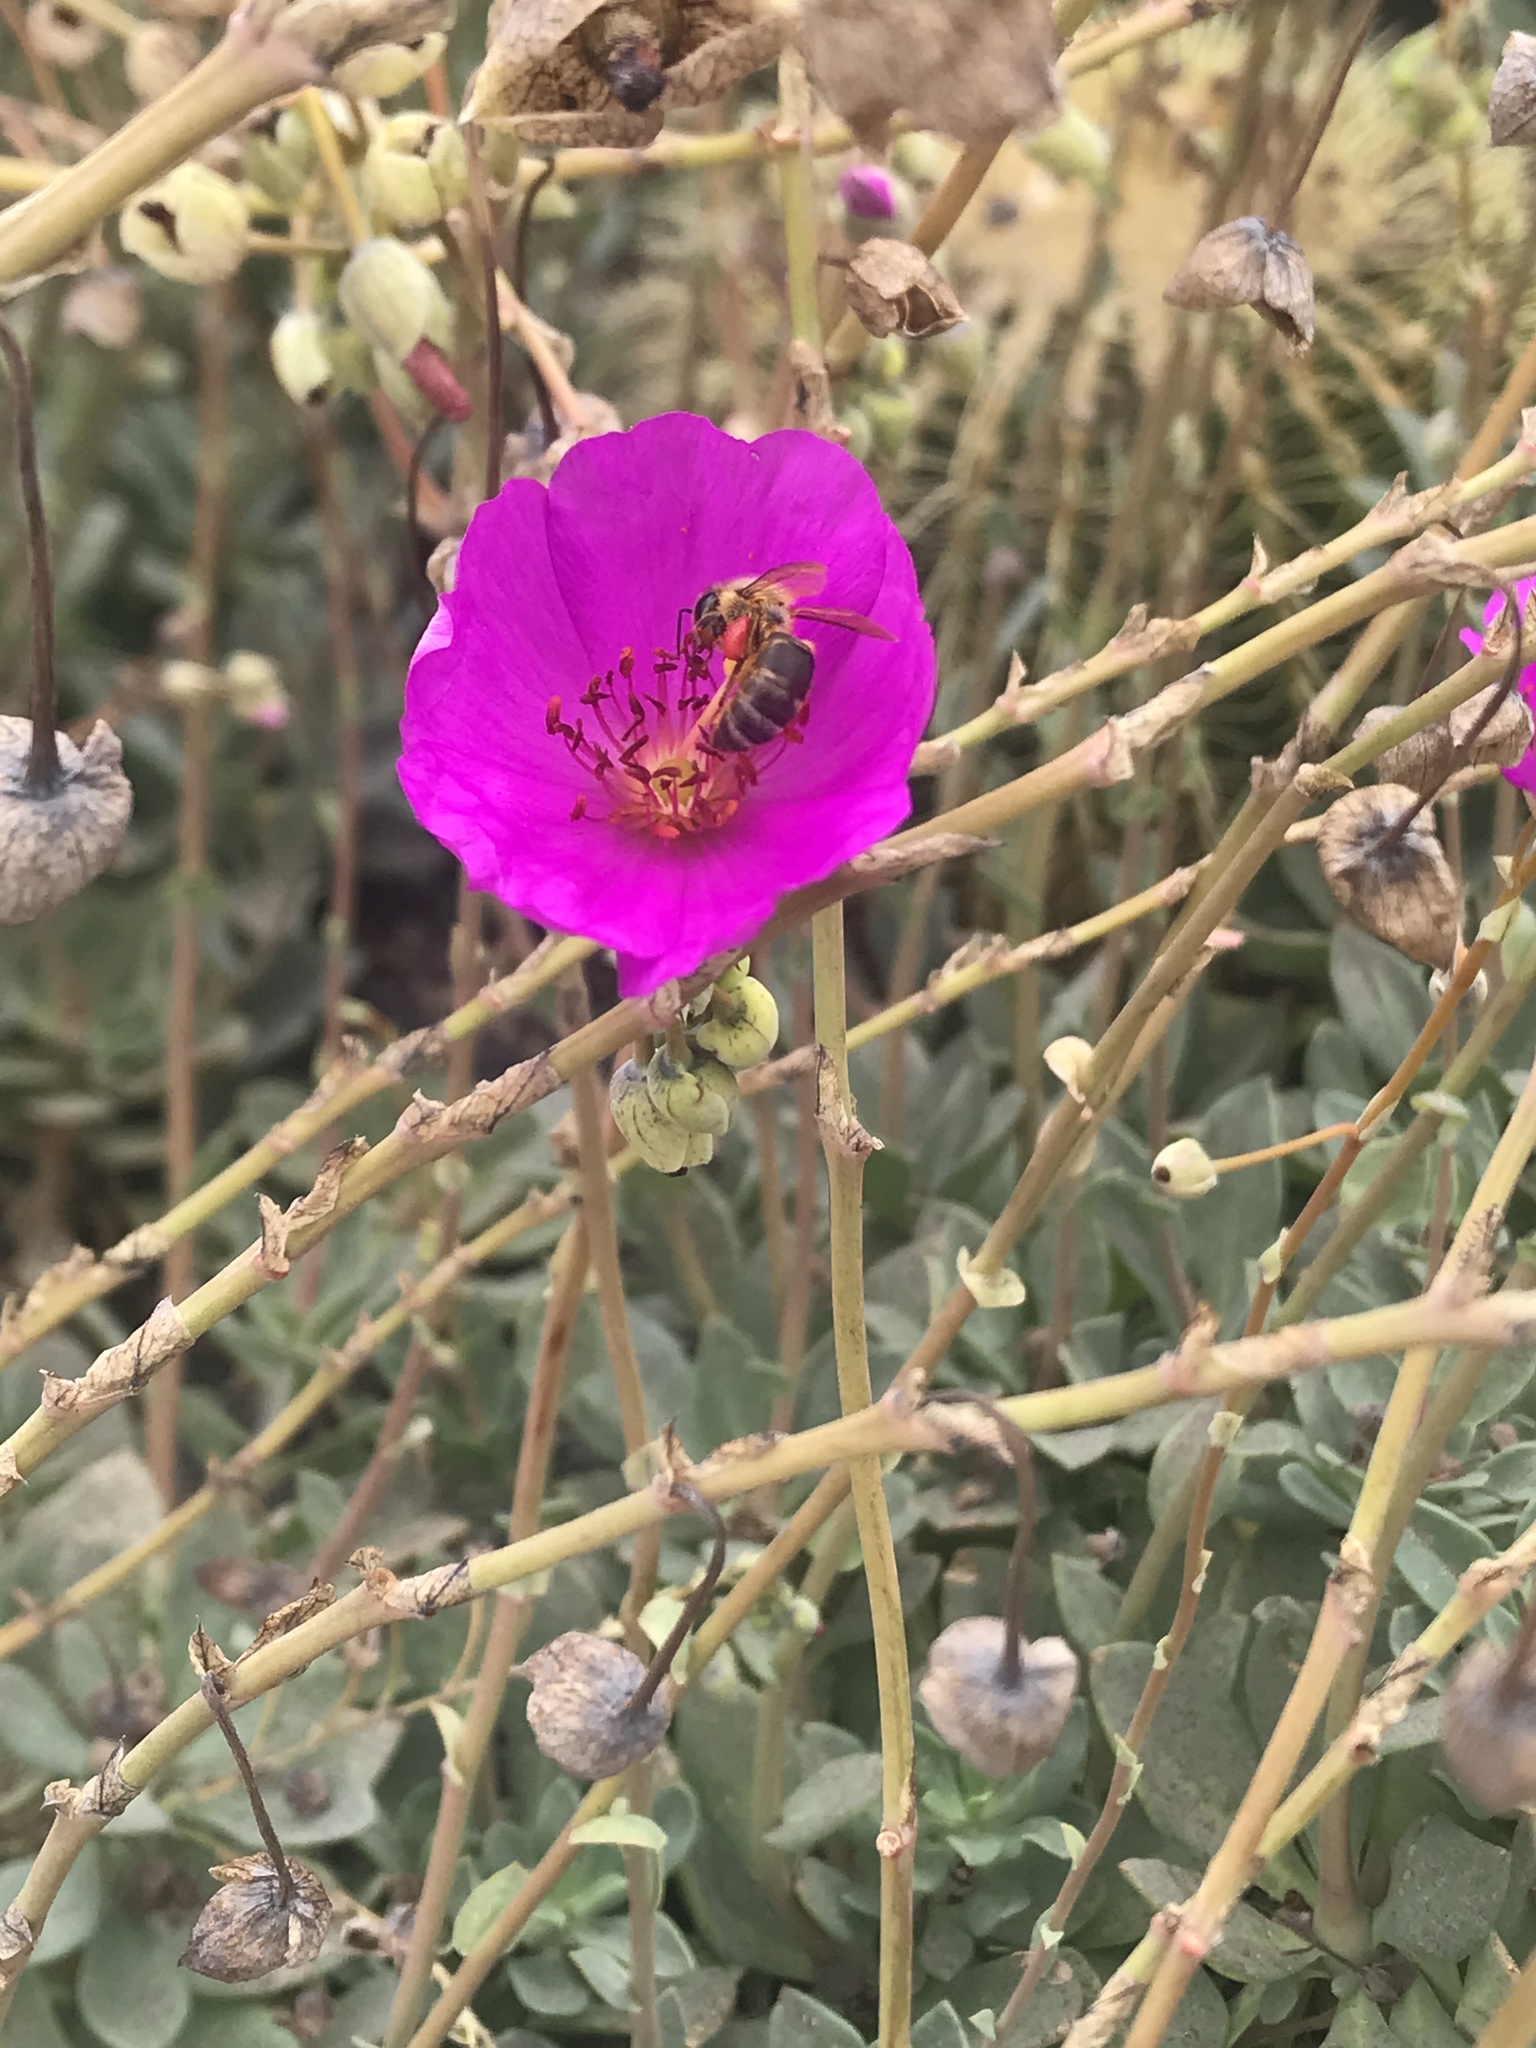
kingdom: Animalia
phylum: Arthropoda
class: Insecta
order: Hymenoptera
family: Apidae
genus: Apis
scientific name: Apis mellifera
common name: Honey bee
